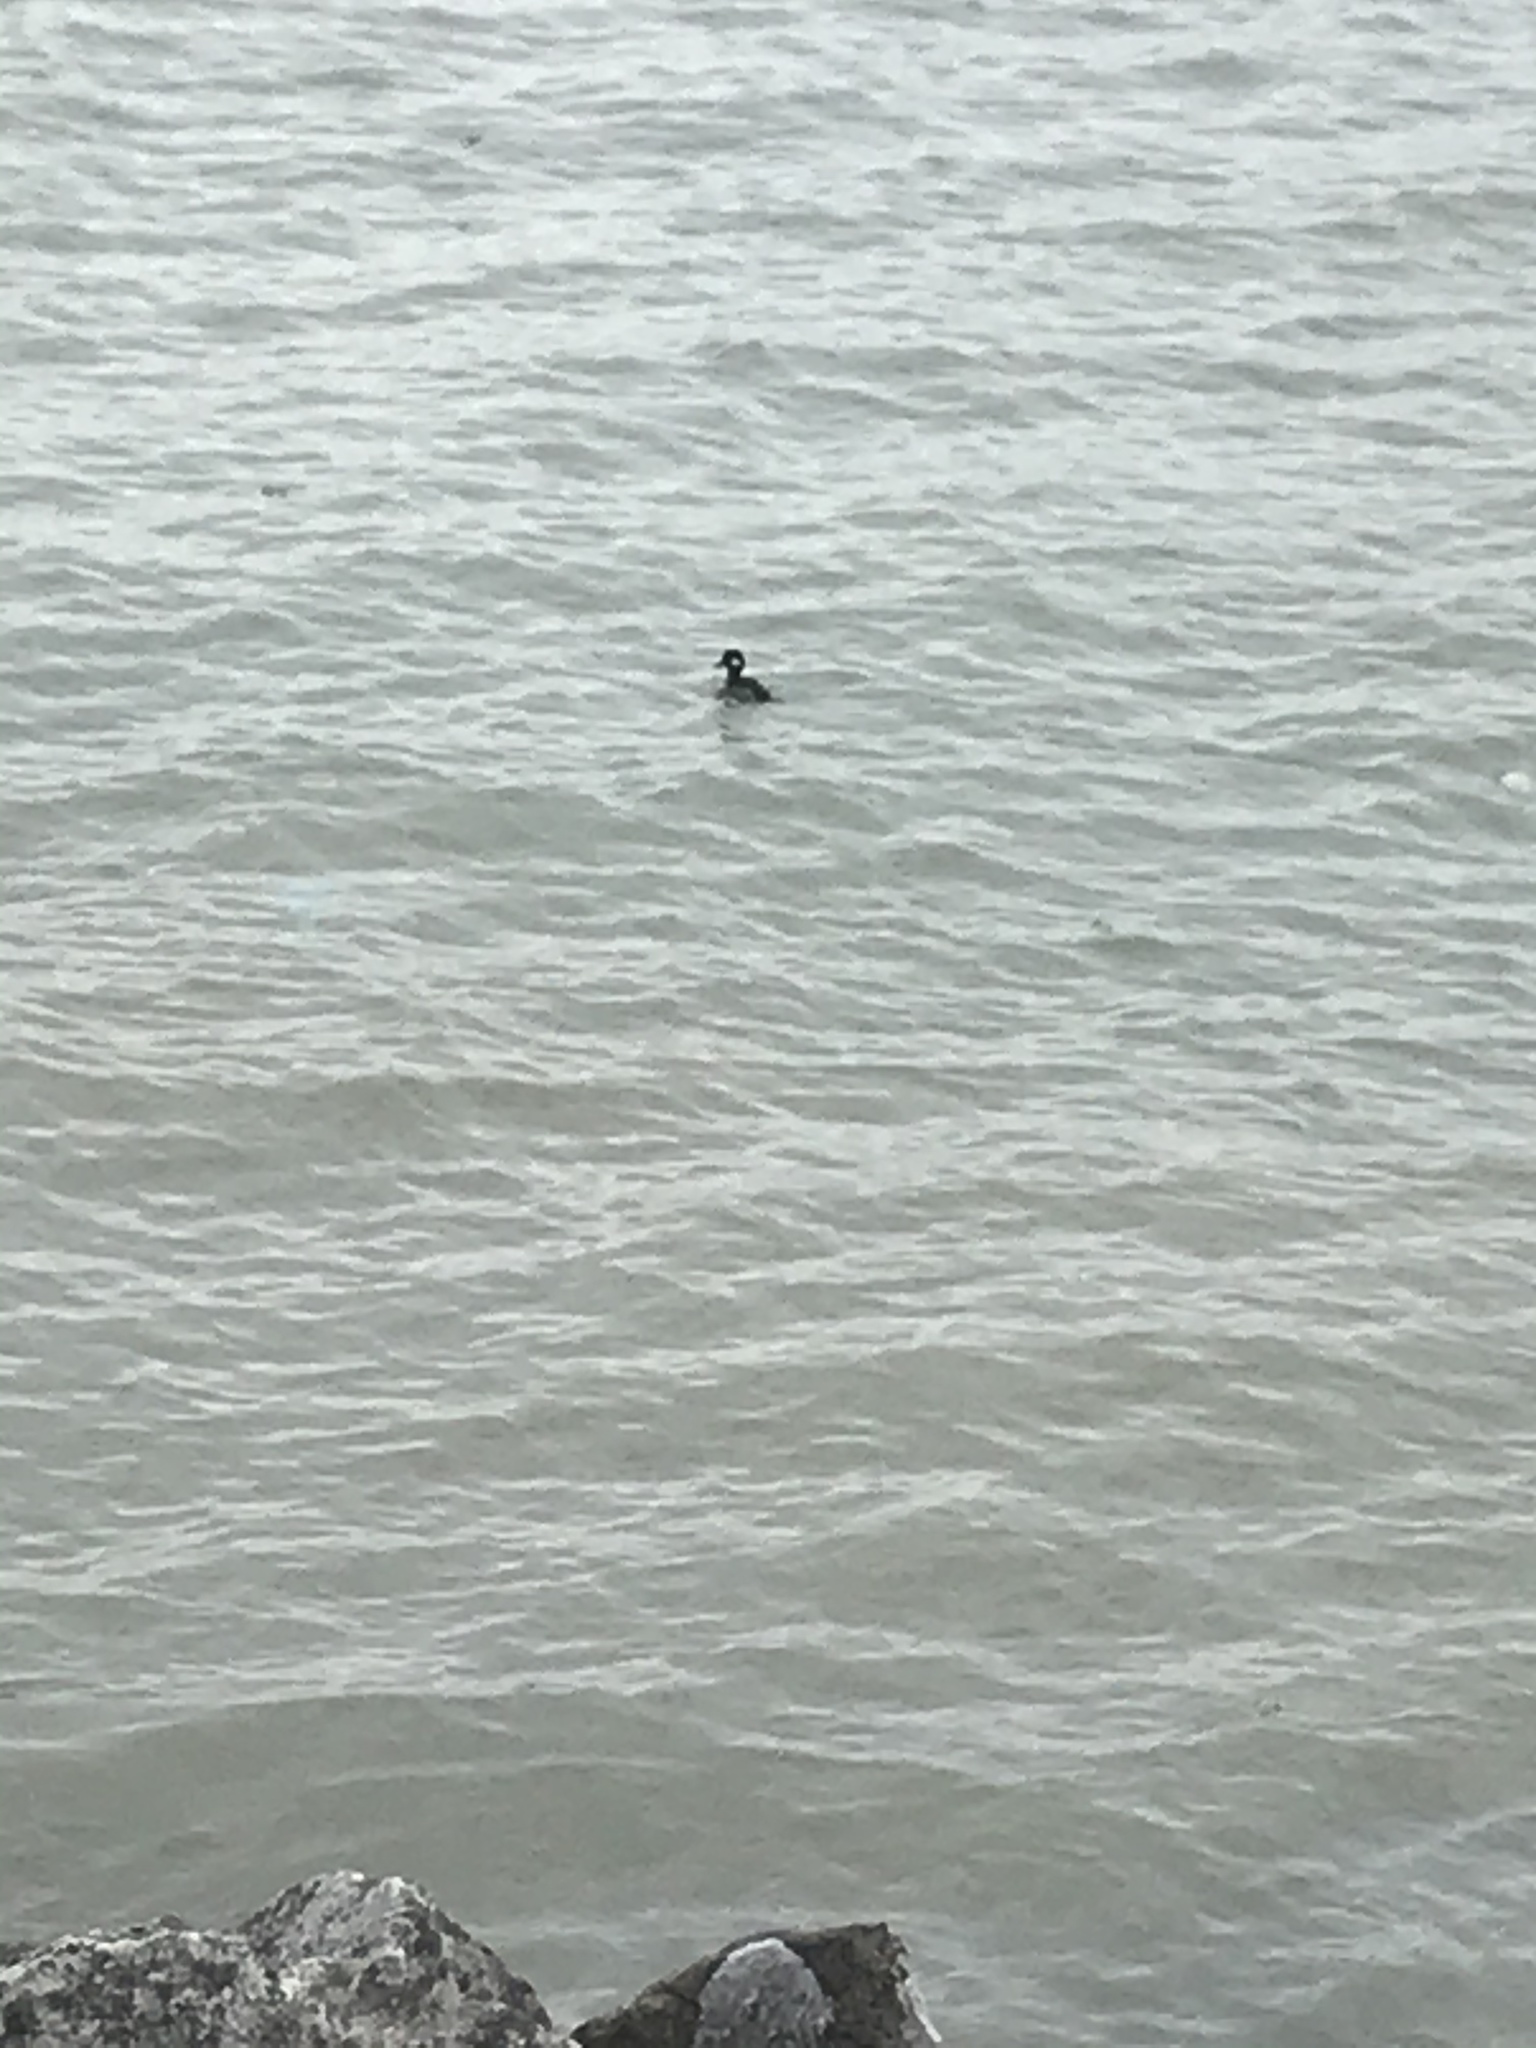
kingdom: Animalia
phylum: Chordata
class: Aves
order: Anseriformes
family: Anatidae
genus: Bucephala
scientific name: Bucephala albeola
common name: Bufflehead
